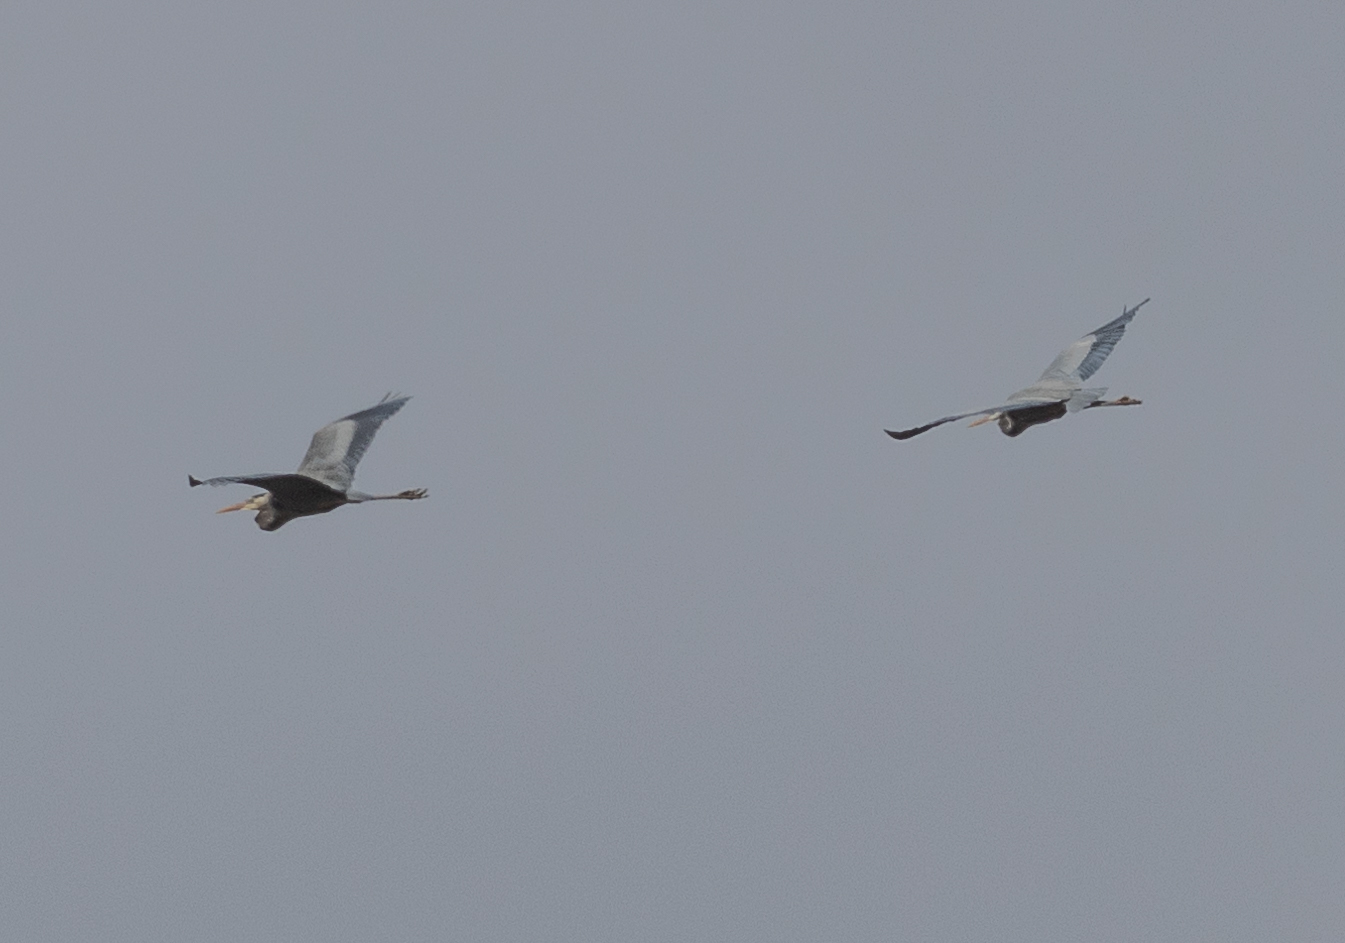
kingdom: Animalia
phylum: Chordata
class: Aves
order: Pelecaniformes
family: Ardeidae
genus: Ardea
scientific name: Ardea herodias
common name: Great blue heron
